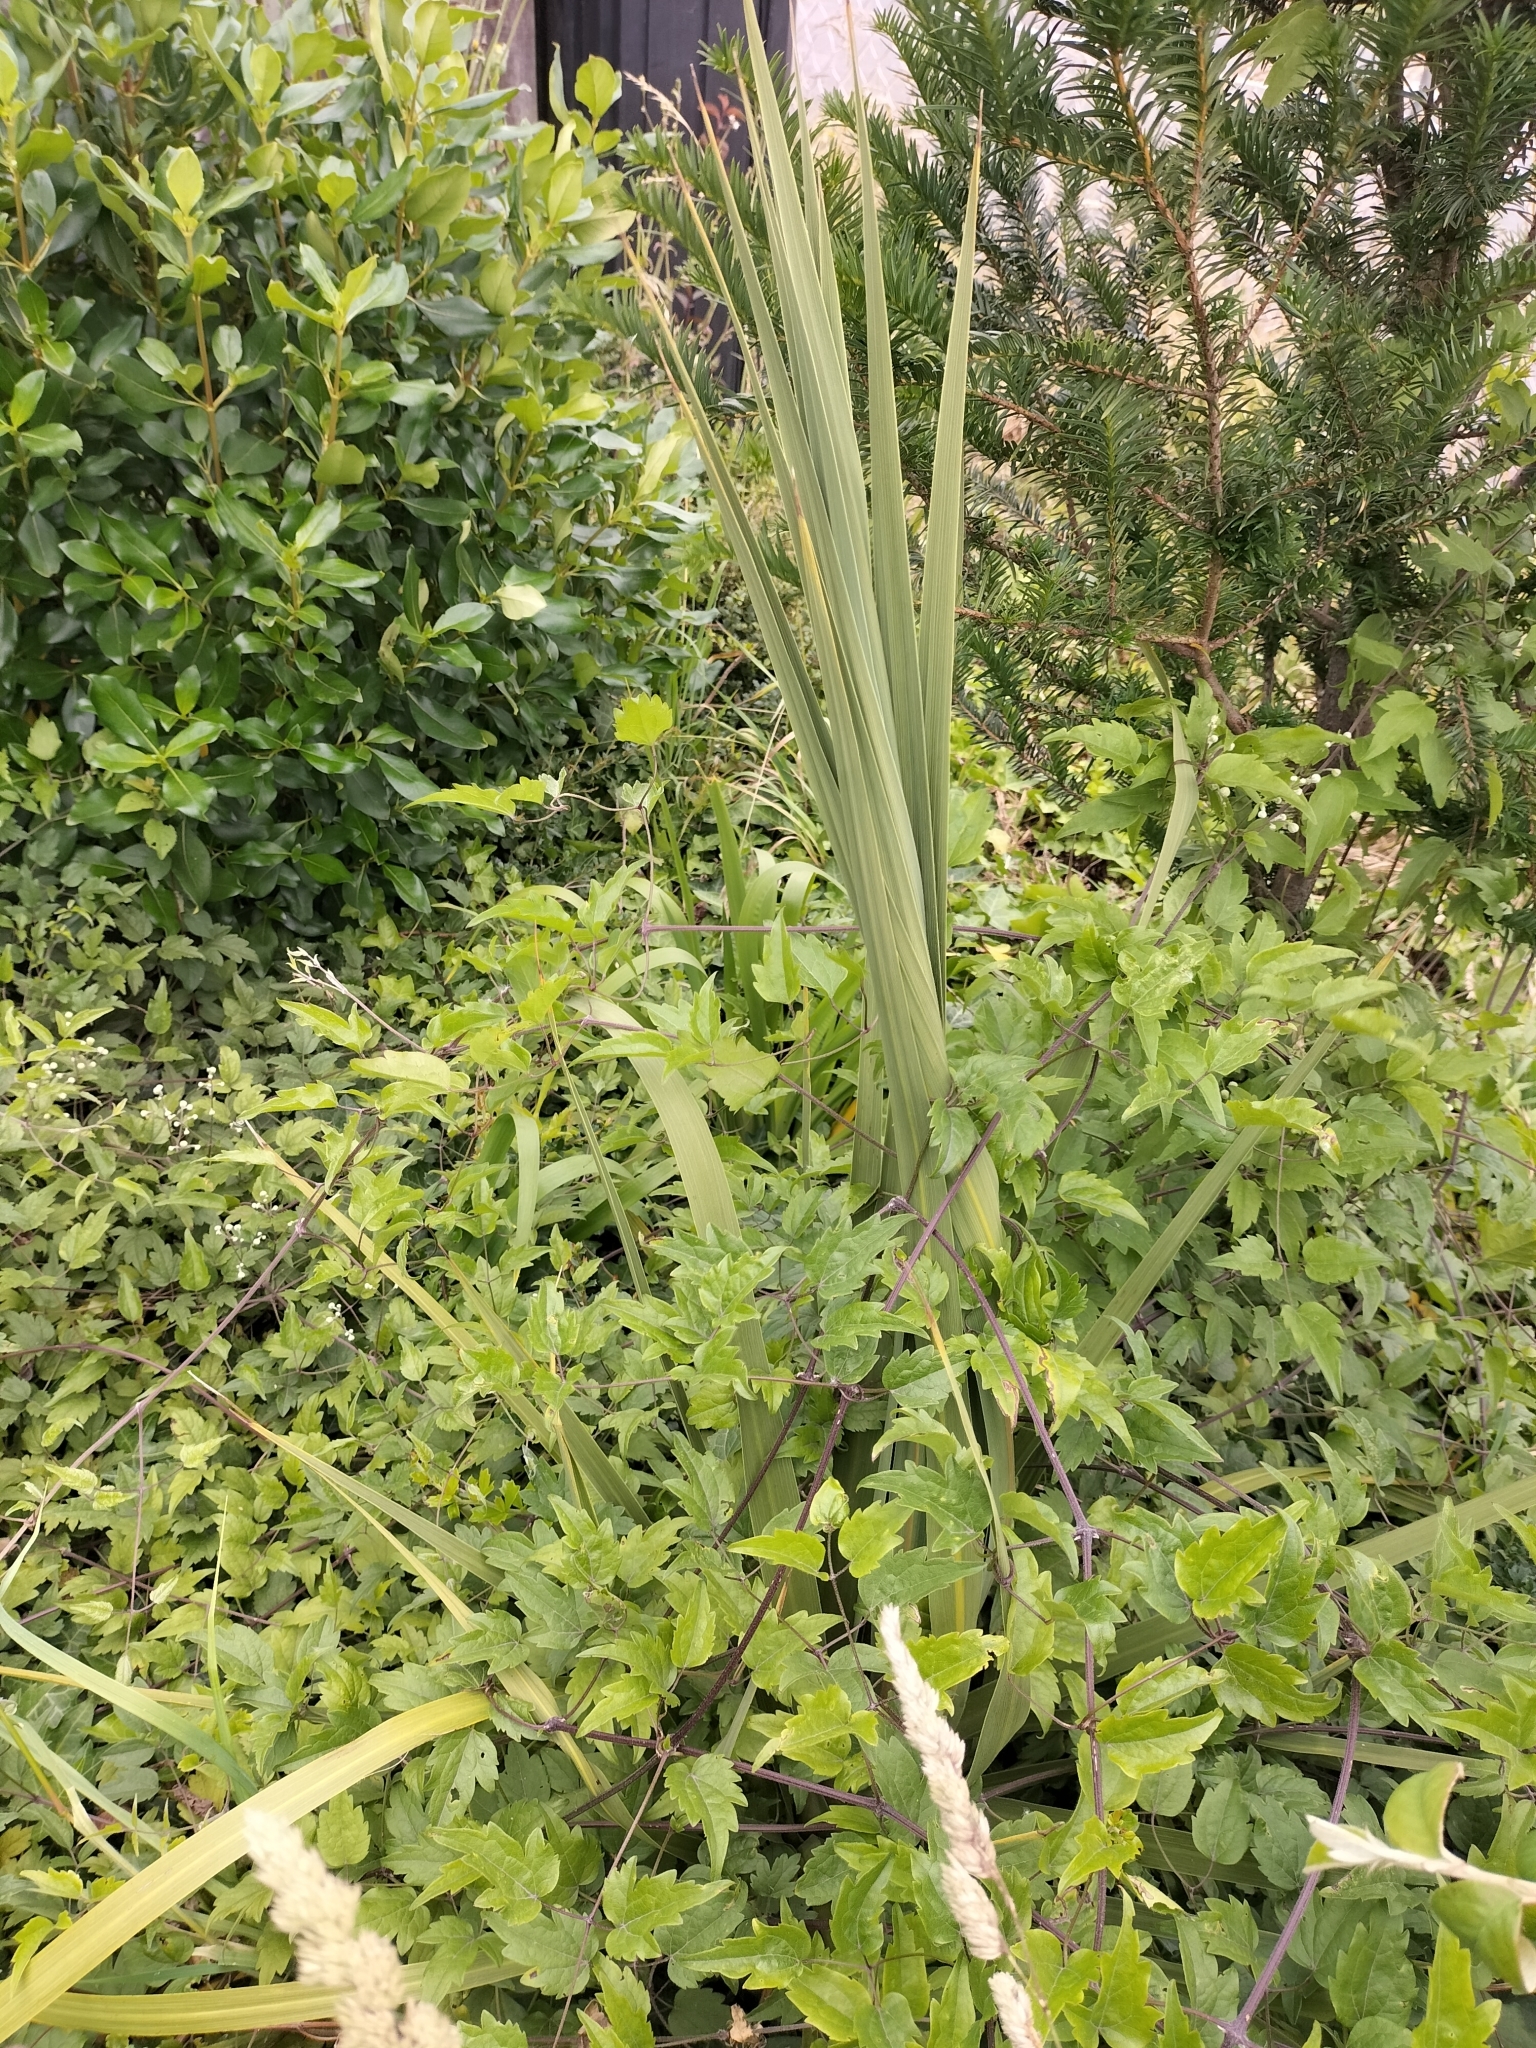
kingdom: Plantae
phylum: Tracheophyta
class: Liliopsida
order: Asparagales
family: Asparagaceae
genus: Cordyline
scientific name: Cordyline australis
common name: Cabbage-palm
